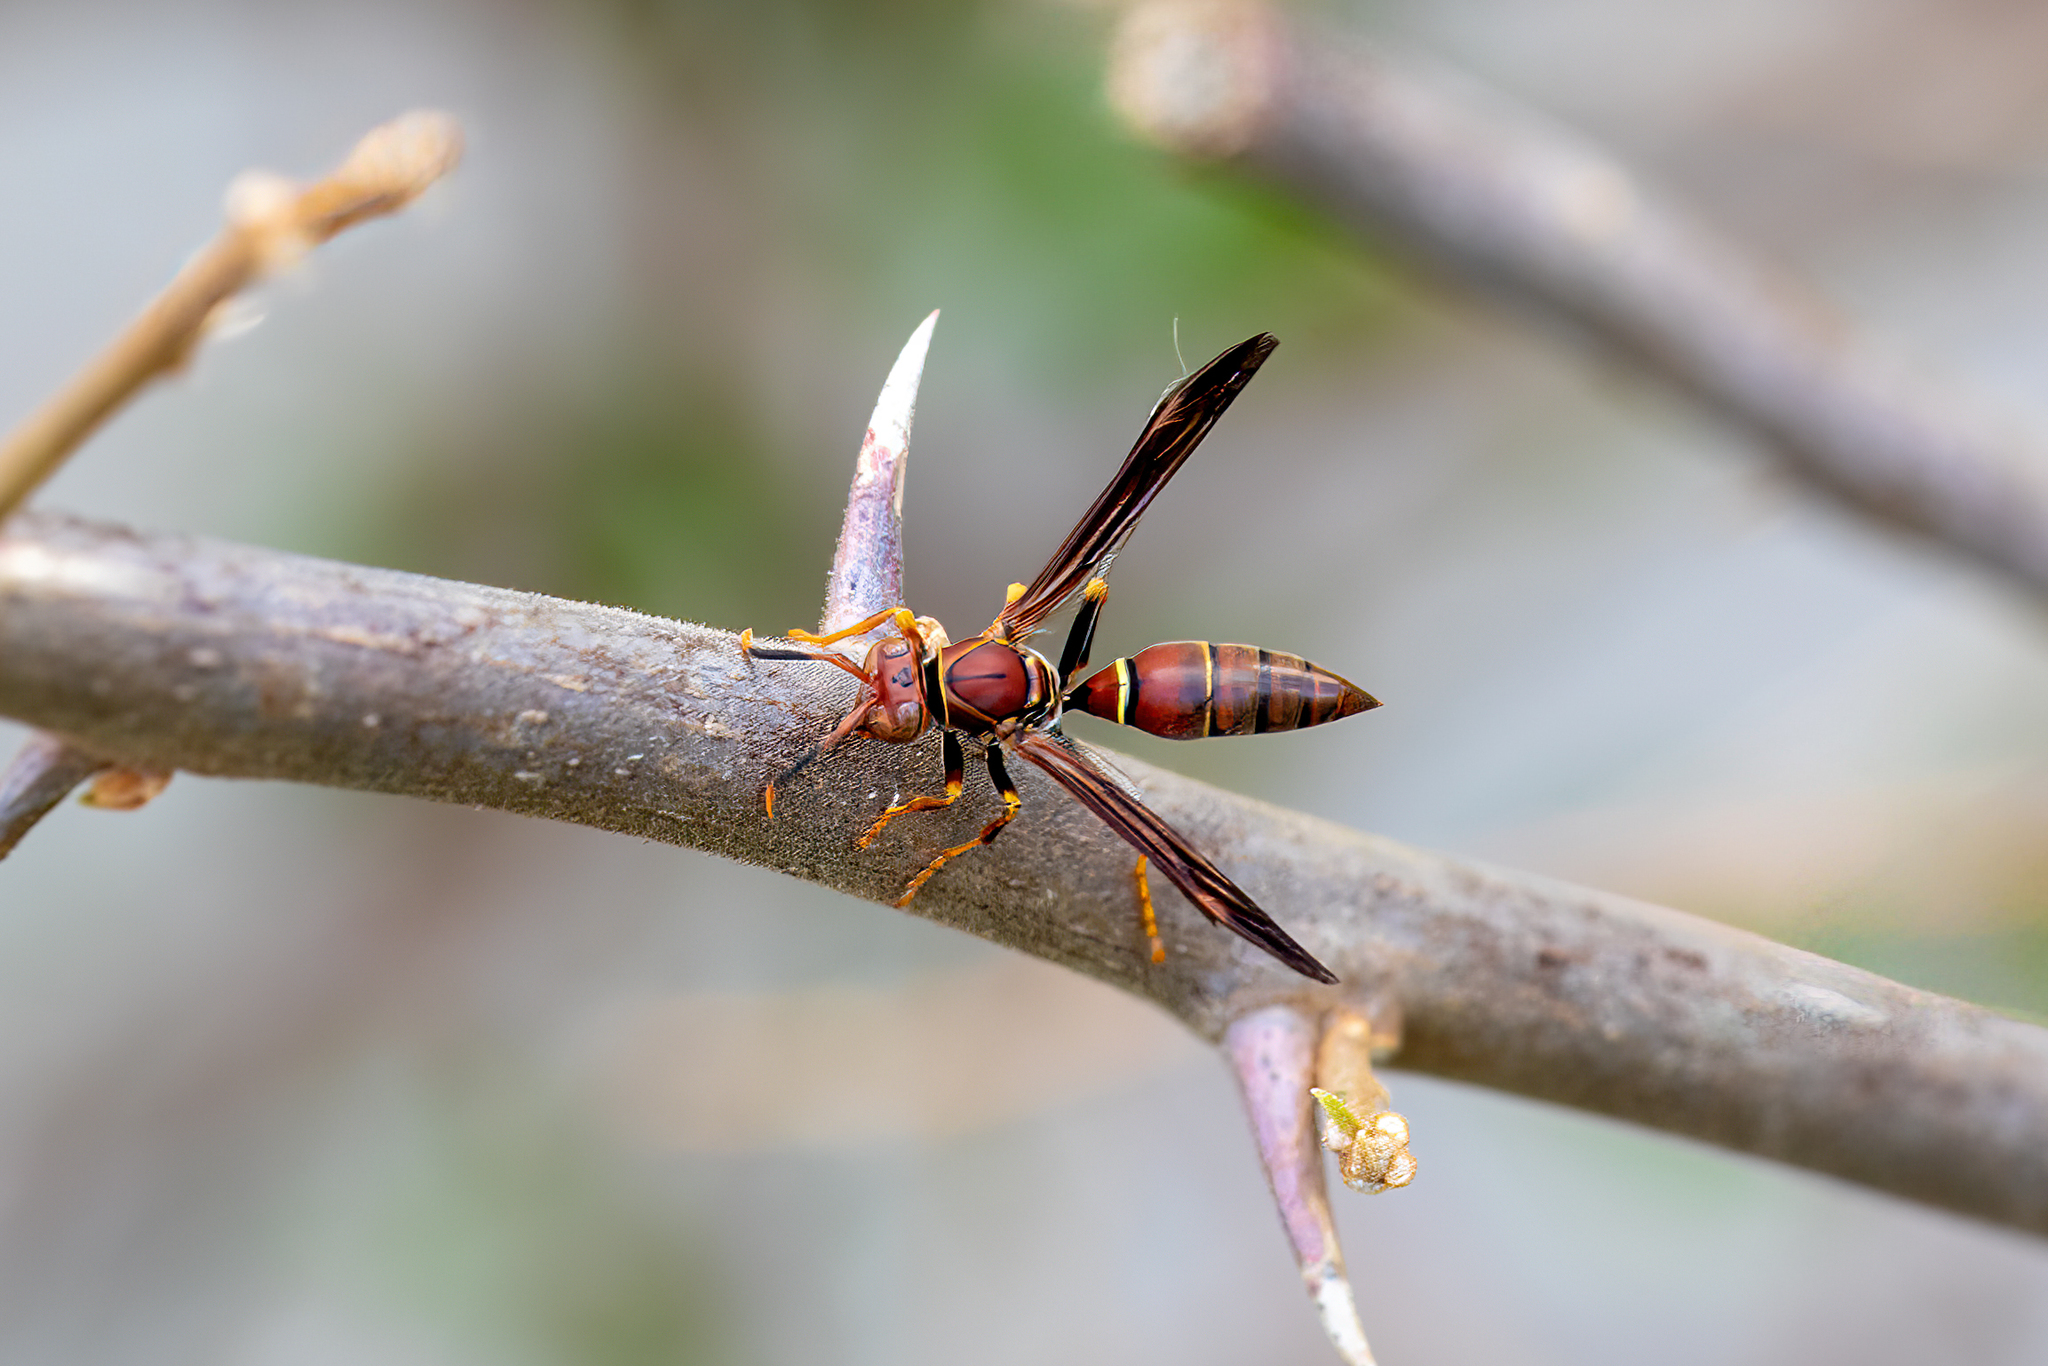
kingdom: Animalia
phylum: Arthropoda
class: Insecta
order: Hymenoptera
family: Eumenidae
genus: Polistes
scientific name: Polistes bahamensis
